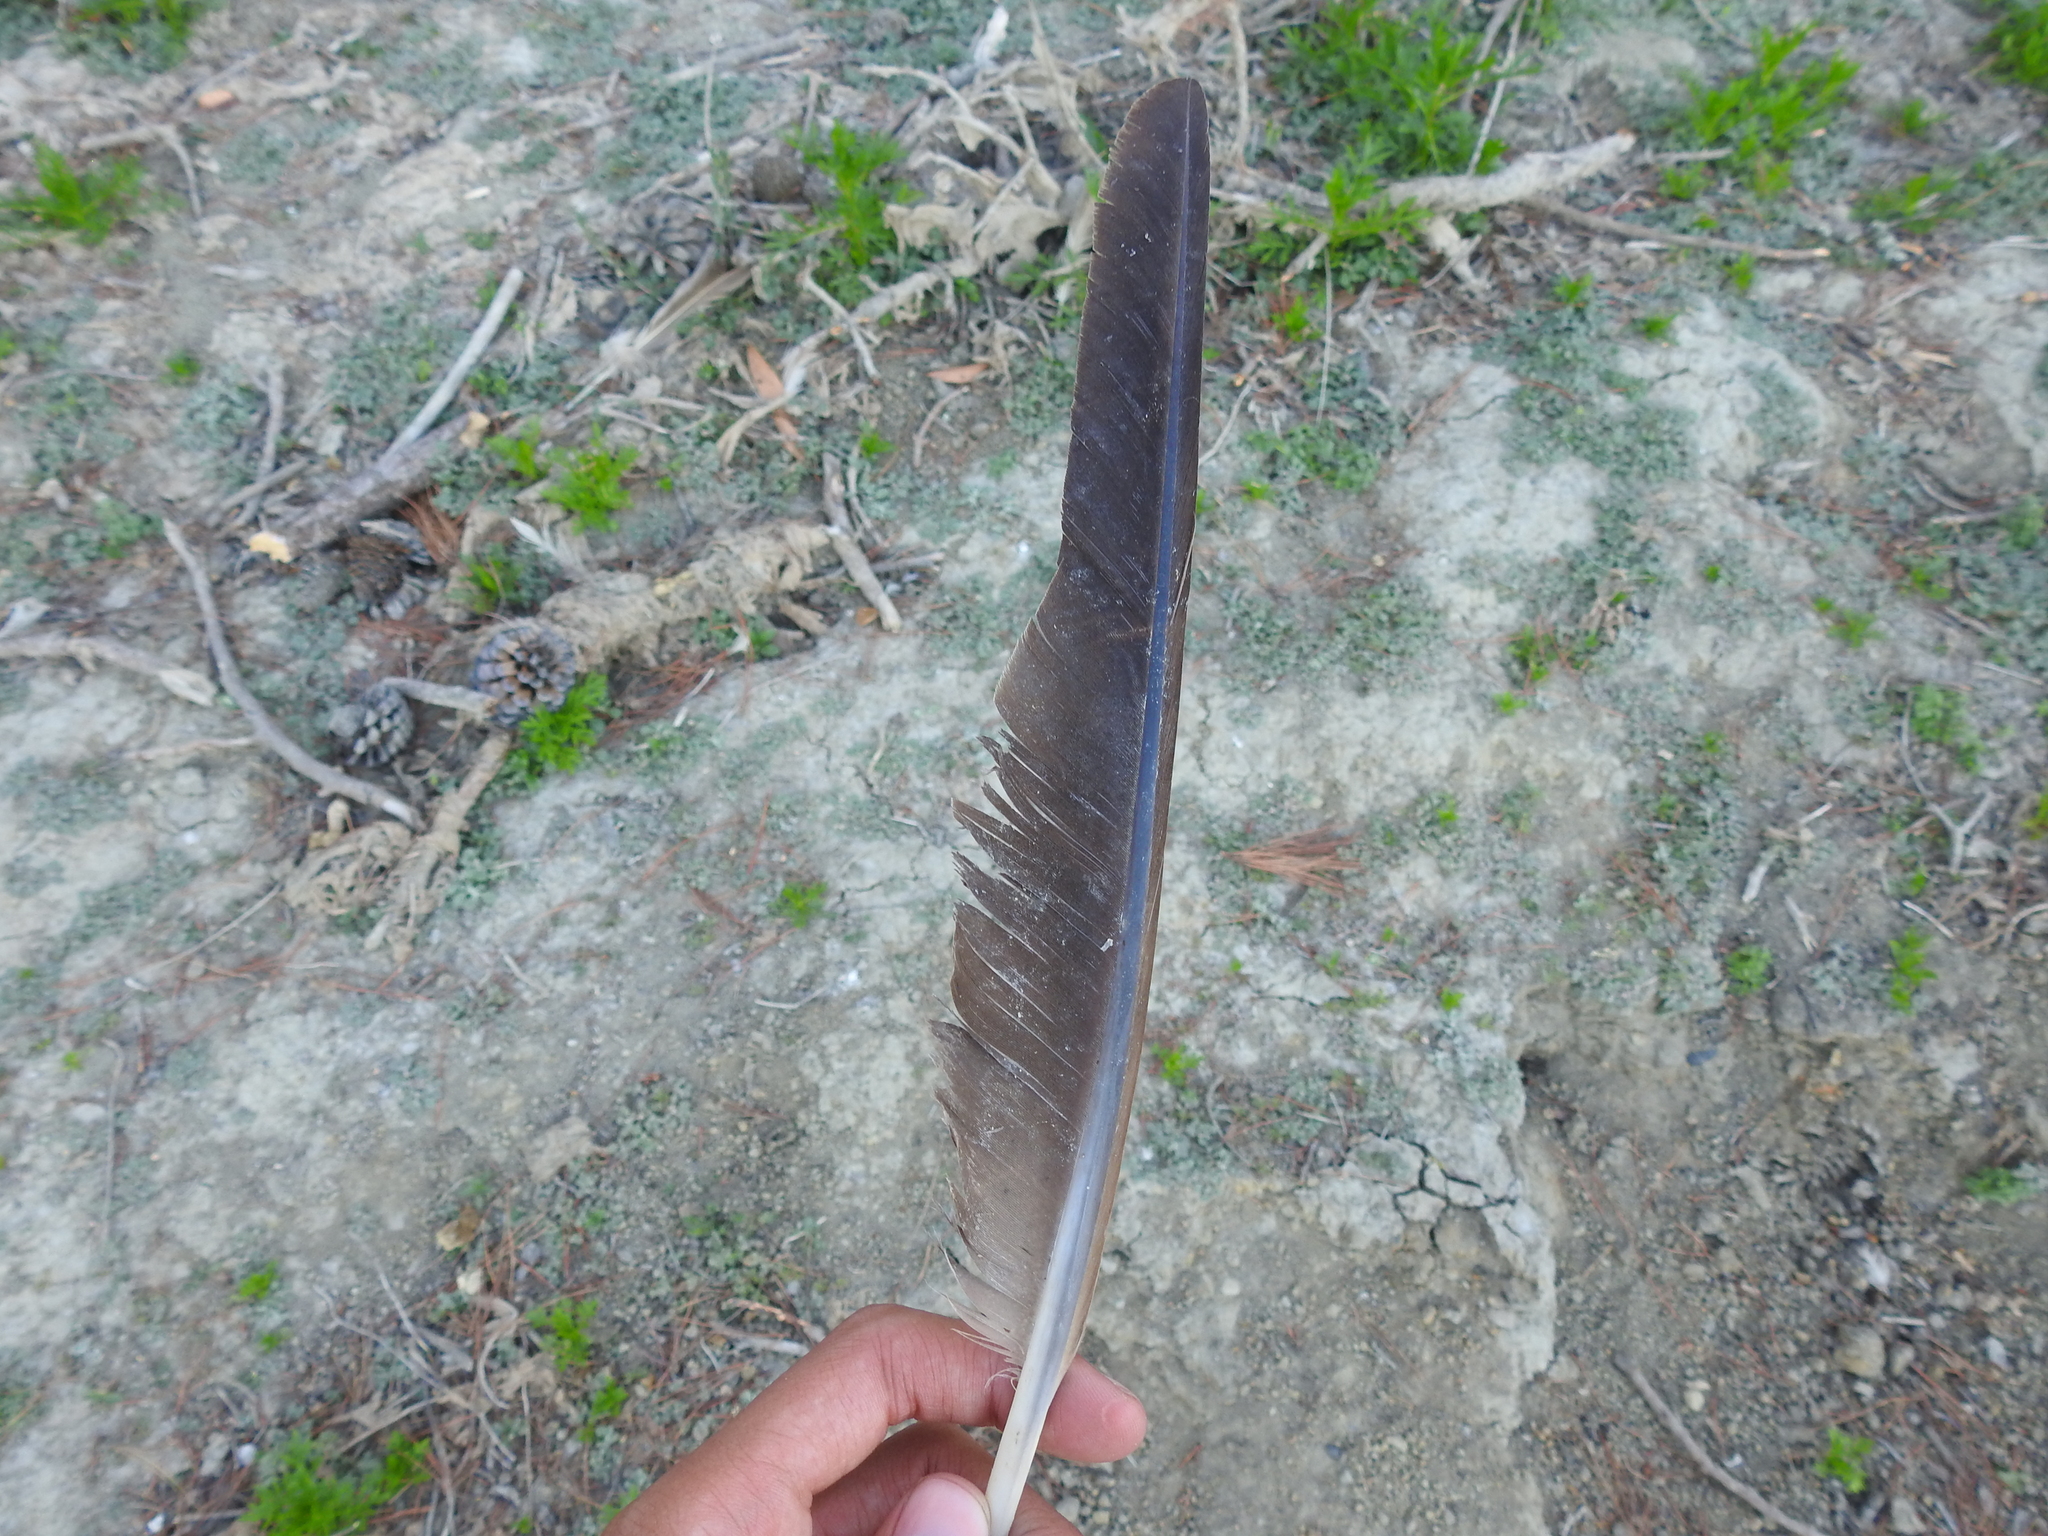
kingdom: Animalia
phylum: Chordata
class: Aves
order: Anseriformes
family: Anatidae
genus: Branta
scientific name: Branta canadensis
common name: Canada goose
